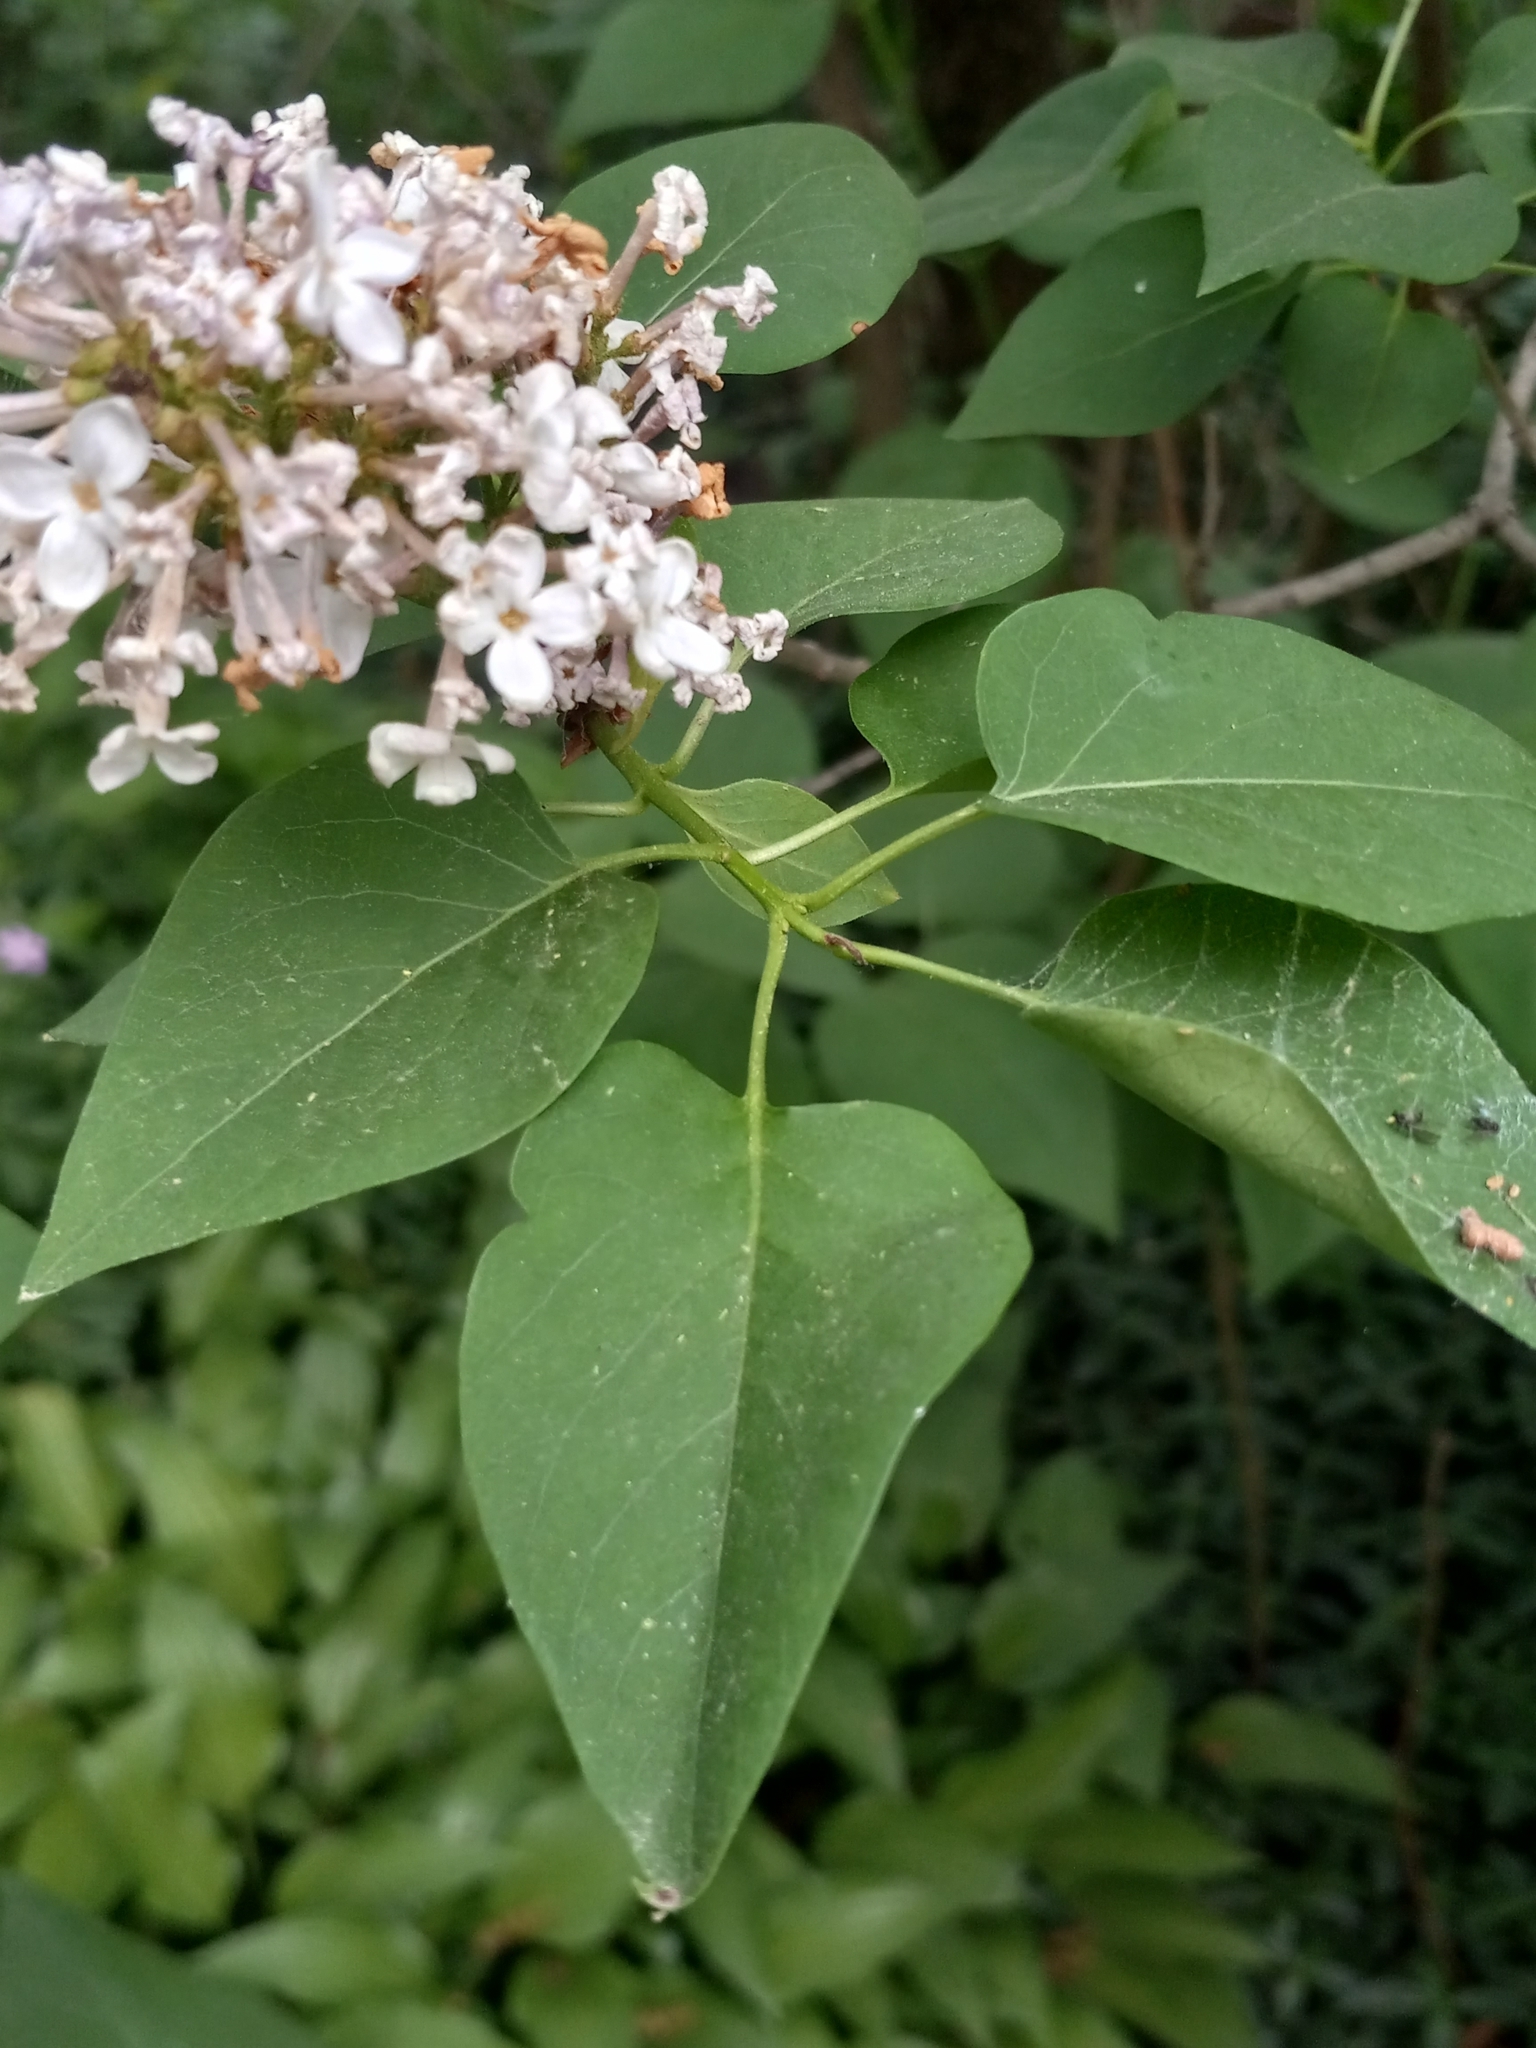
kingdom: Plantae
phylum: Tracheophyta
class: Magnoliopsida
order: Lamiales
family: Oleaceae
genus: Syringa
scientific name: Syringa vulgaris
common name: Common lilac
